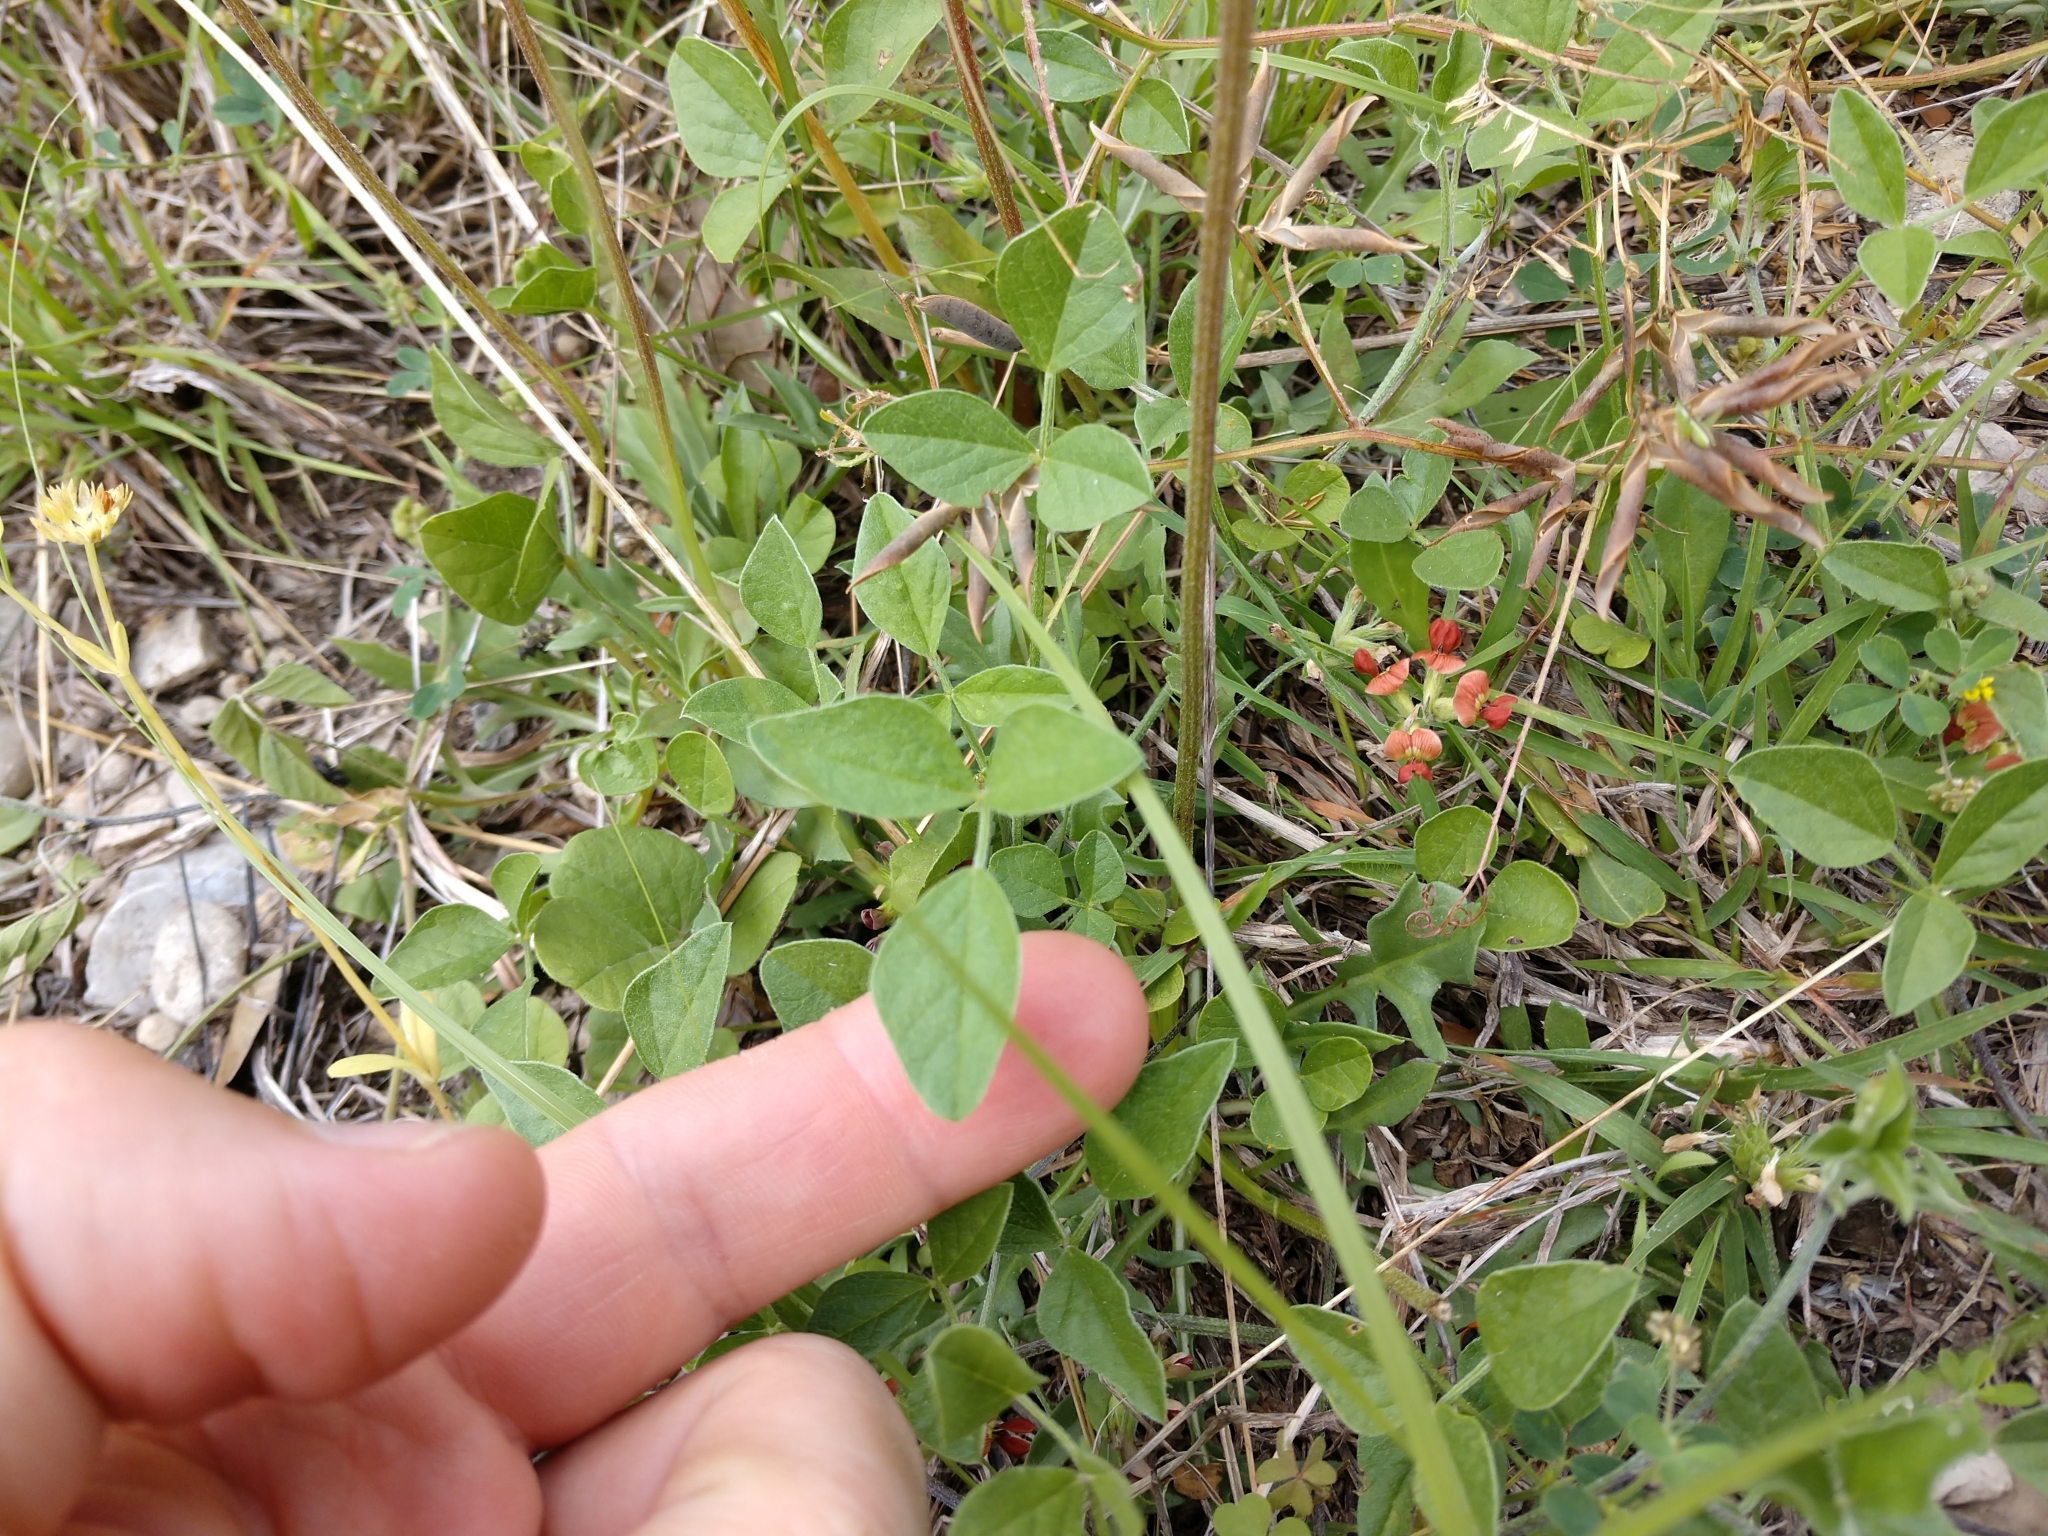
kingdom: Plantae
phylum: Tracheophyta
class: Magnoliopsida
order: Fabales
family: Fabaceae
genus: Pediomelum
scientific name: Pediomelum rhombifolium
